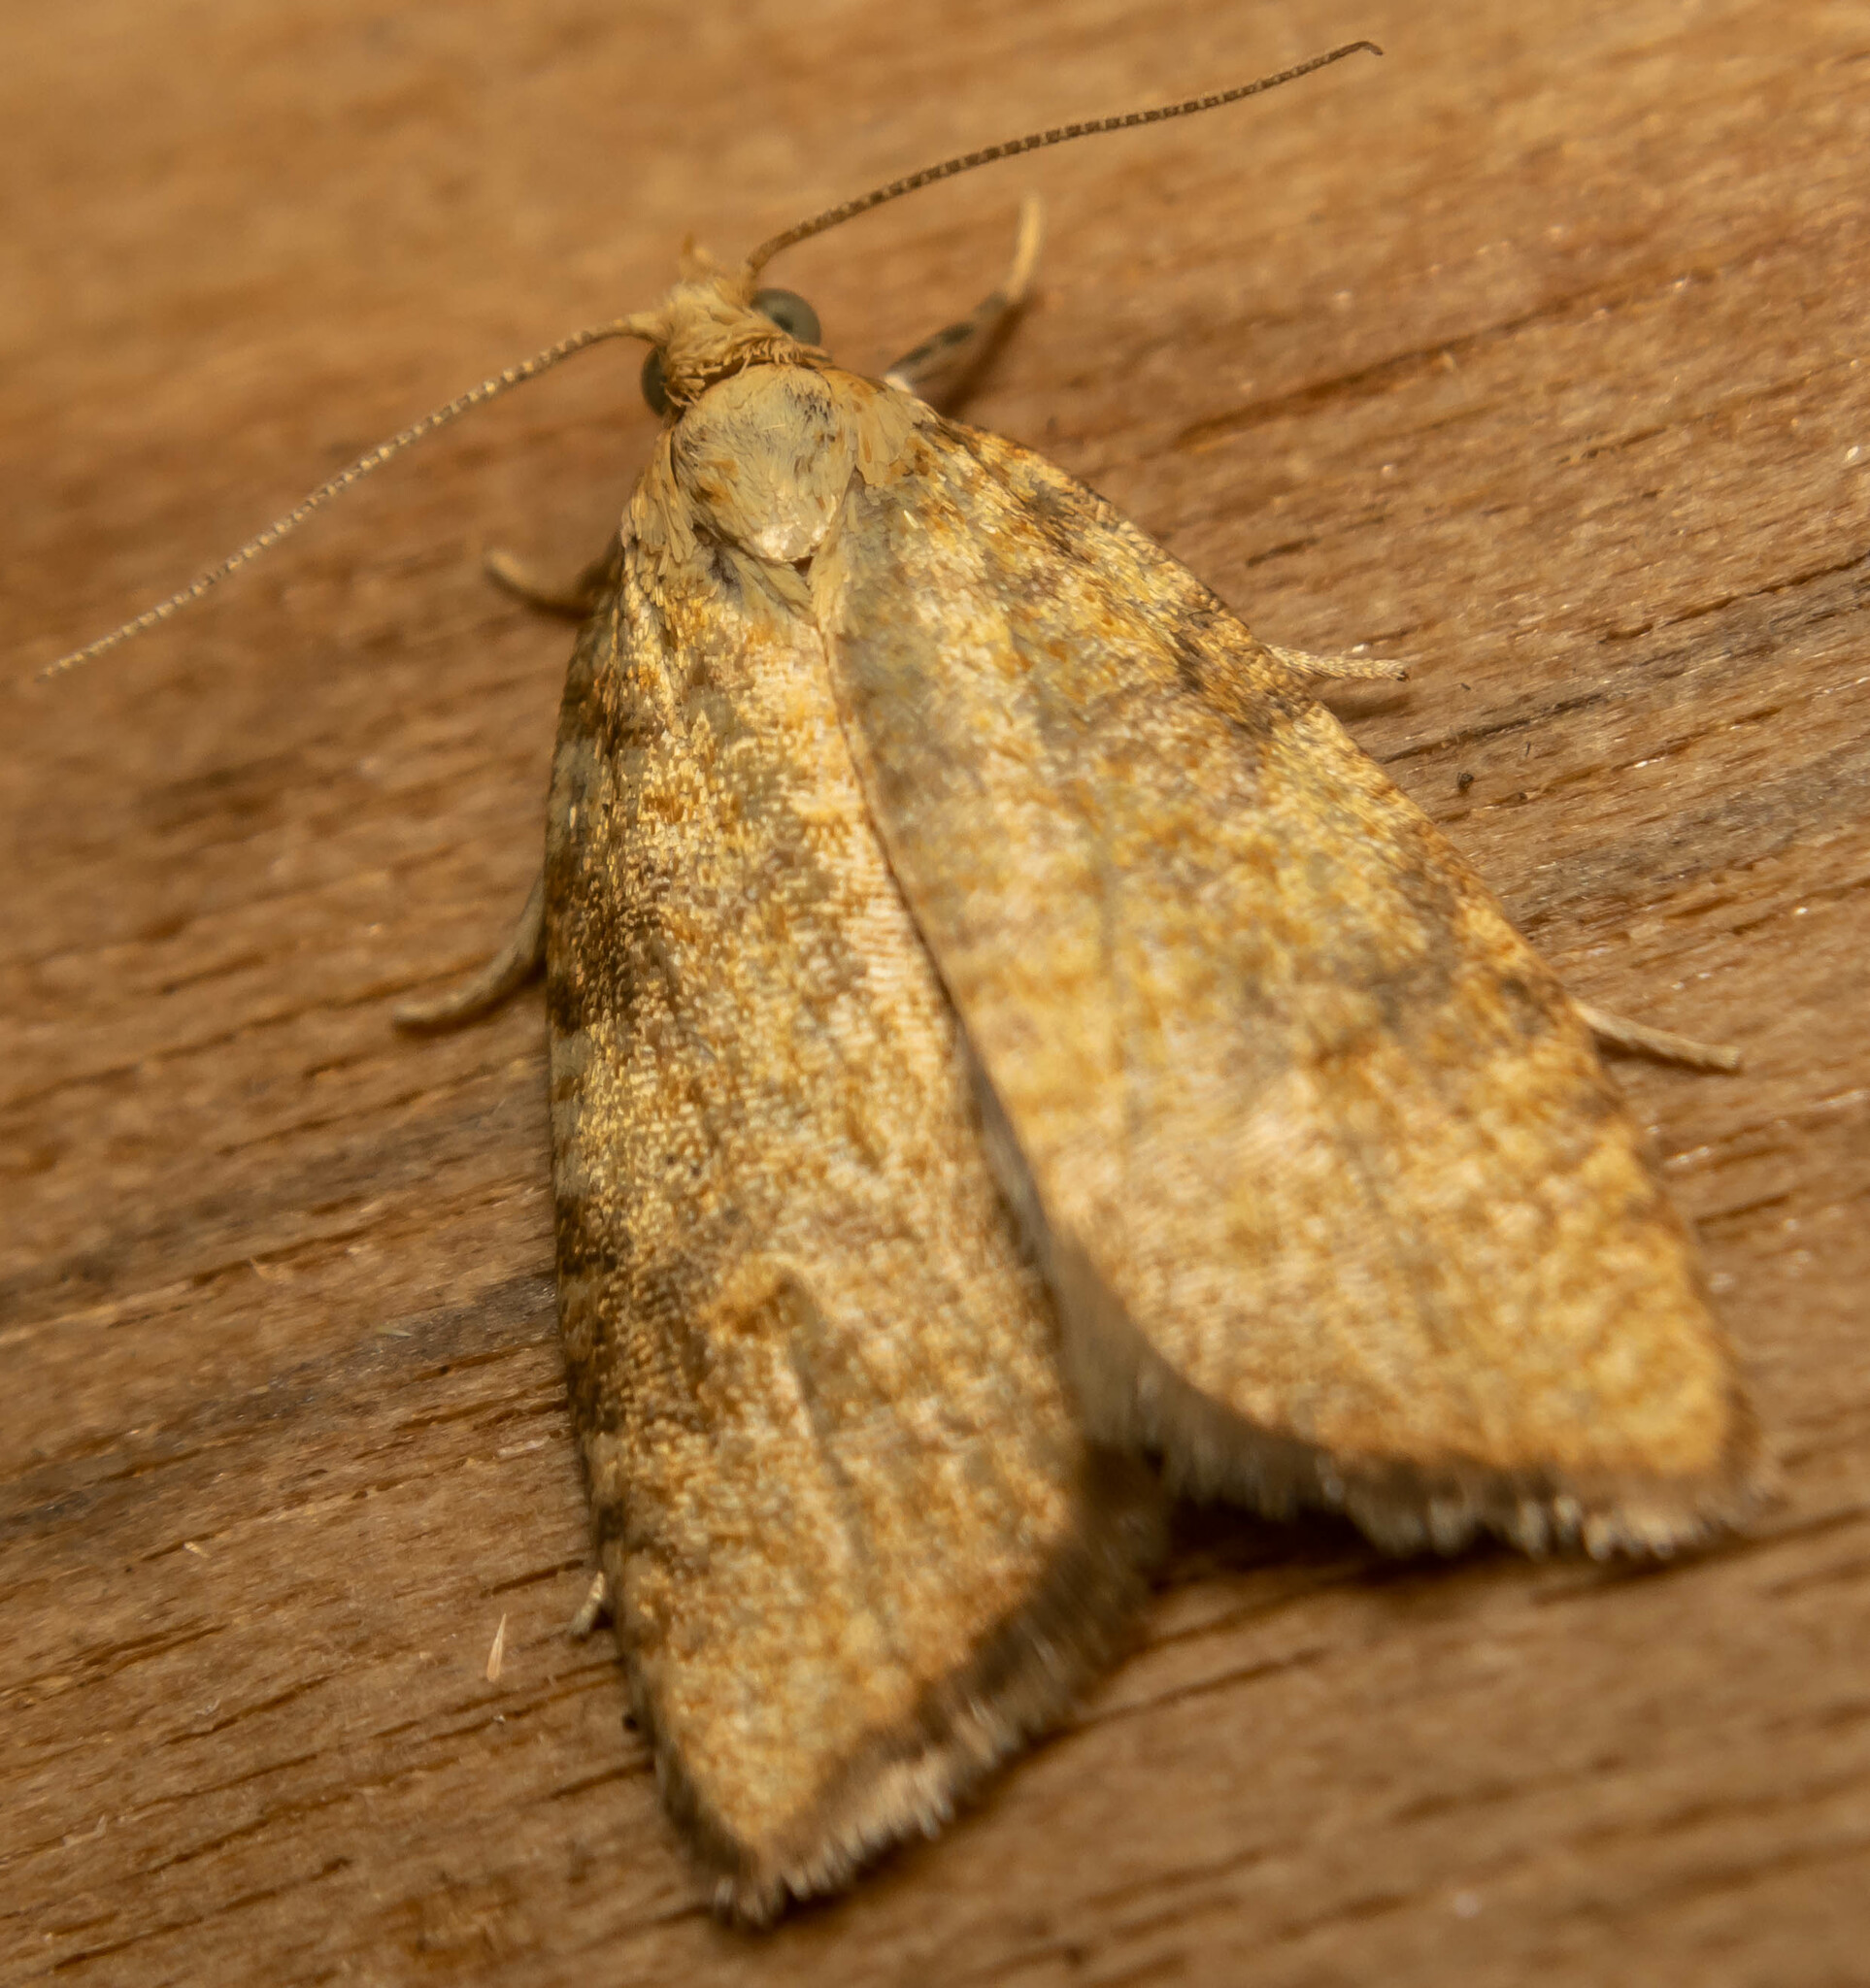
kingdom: Animalia
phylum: Arthropoda
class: Insecta
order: Lepidoptera
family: Tortricidae
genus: Aleimma
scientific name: Aleimma loeflingiana
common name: Yellow oak button
